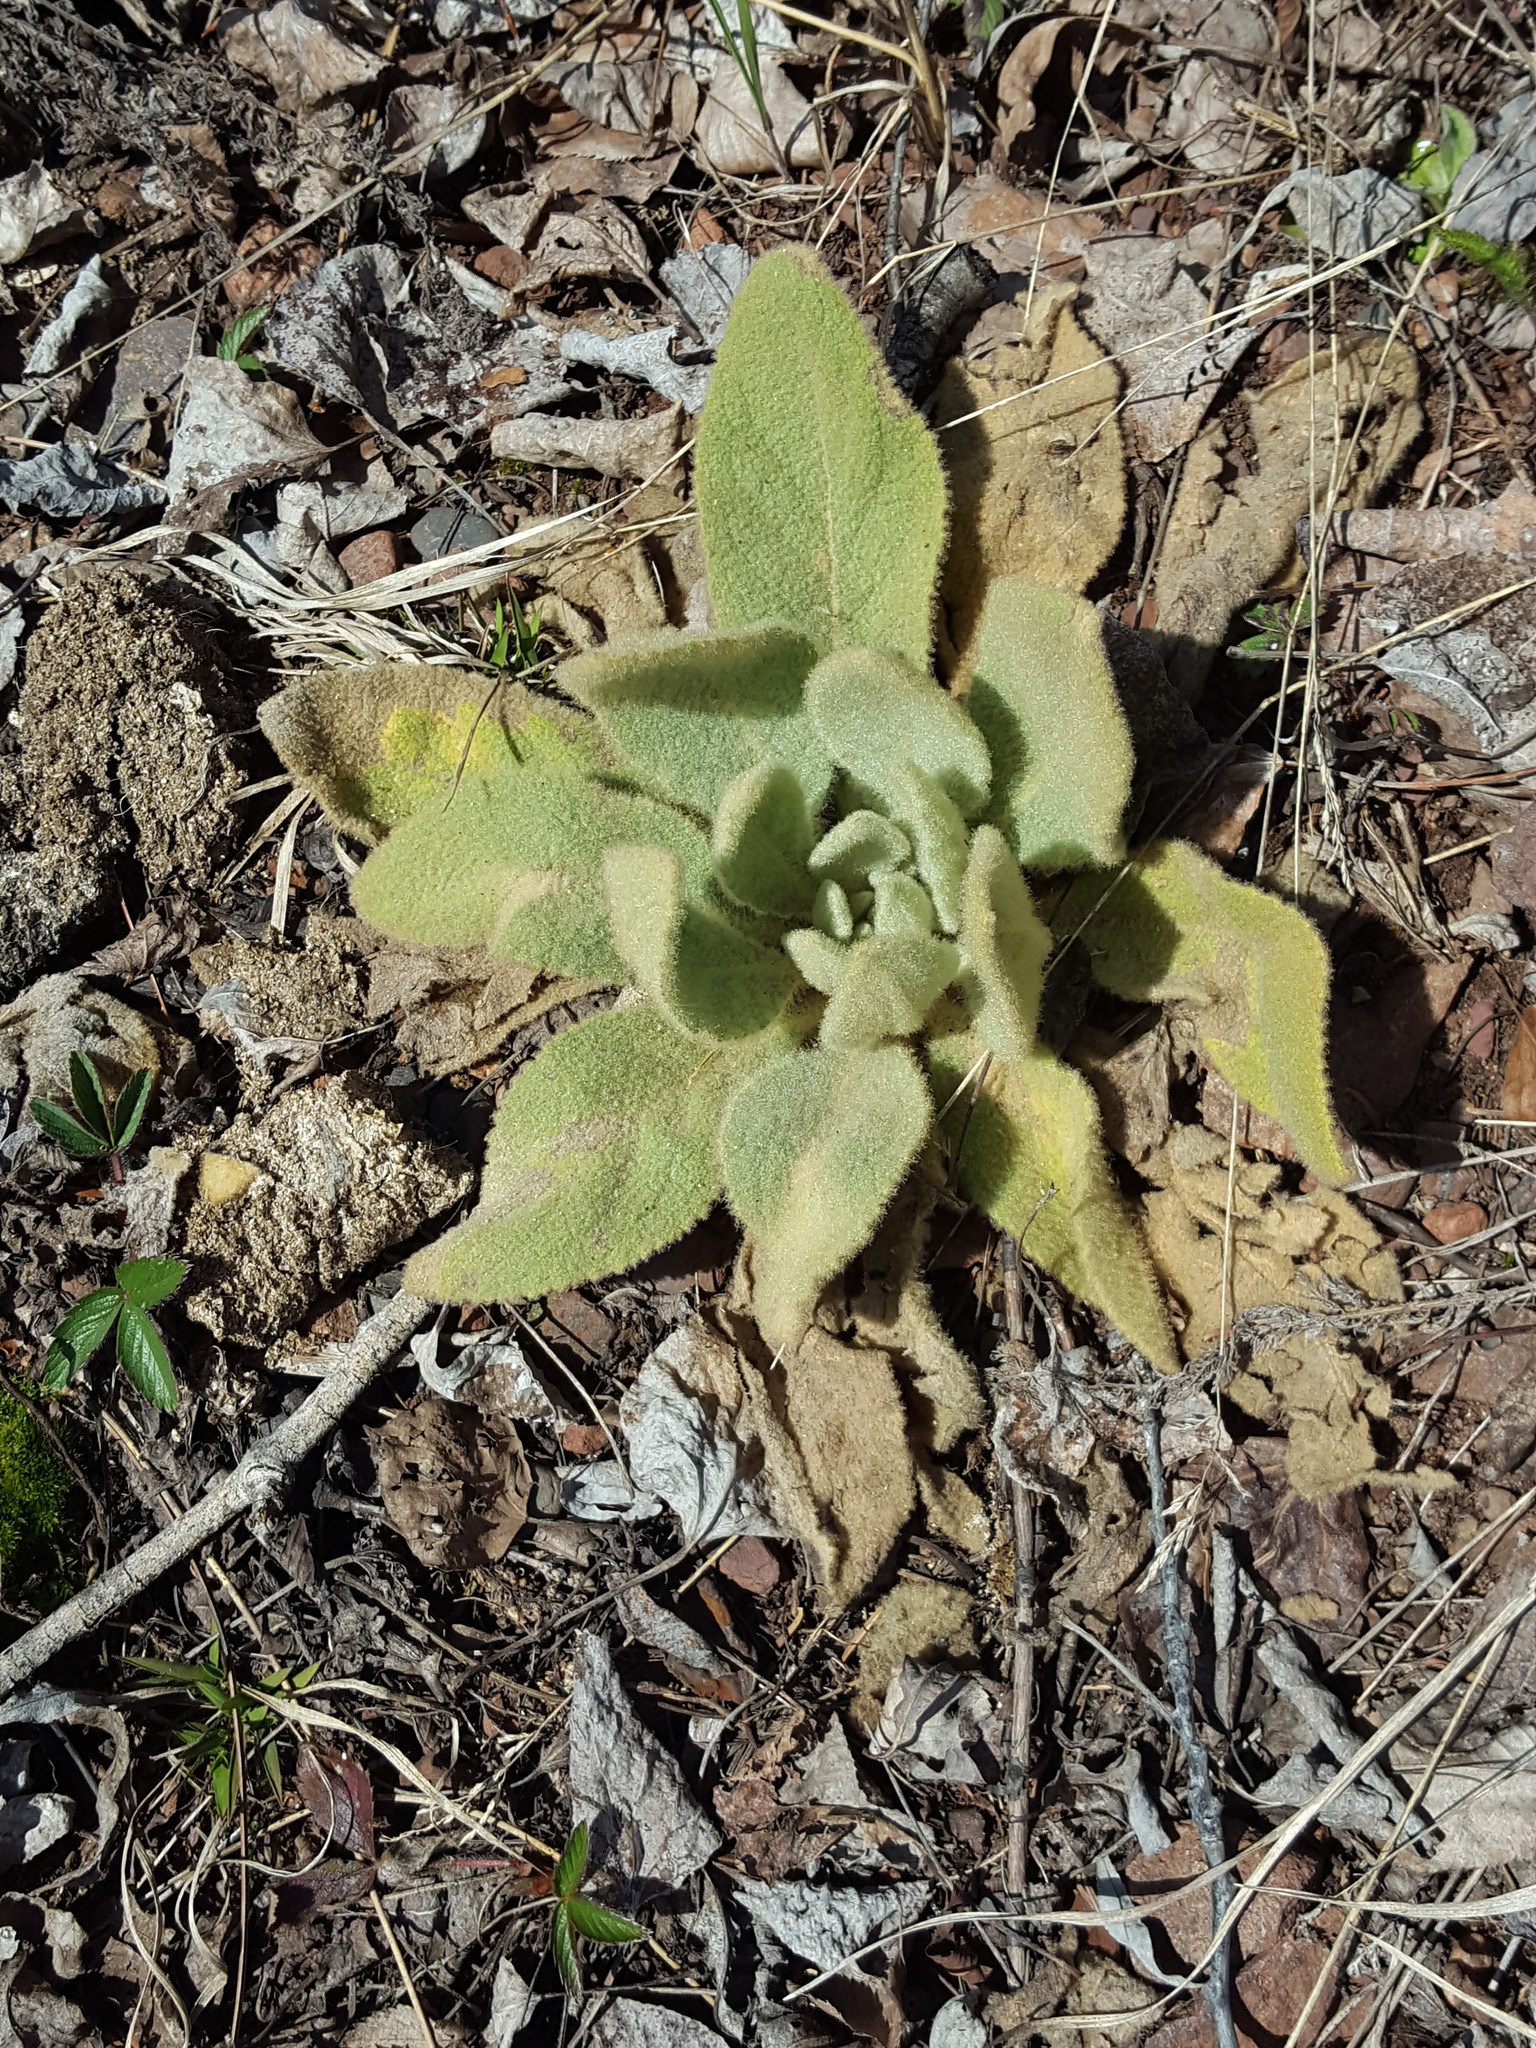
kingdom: Plantae
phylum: Tracheophyta
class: Magnoliopsida
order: Lamiales
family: Scrophulariaceae
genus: Verbascum
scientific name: Verbascum thapsus
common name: Common mullein
